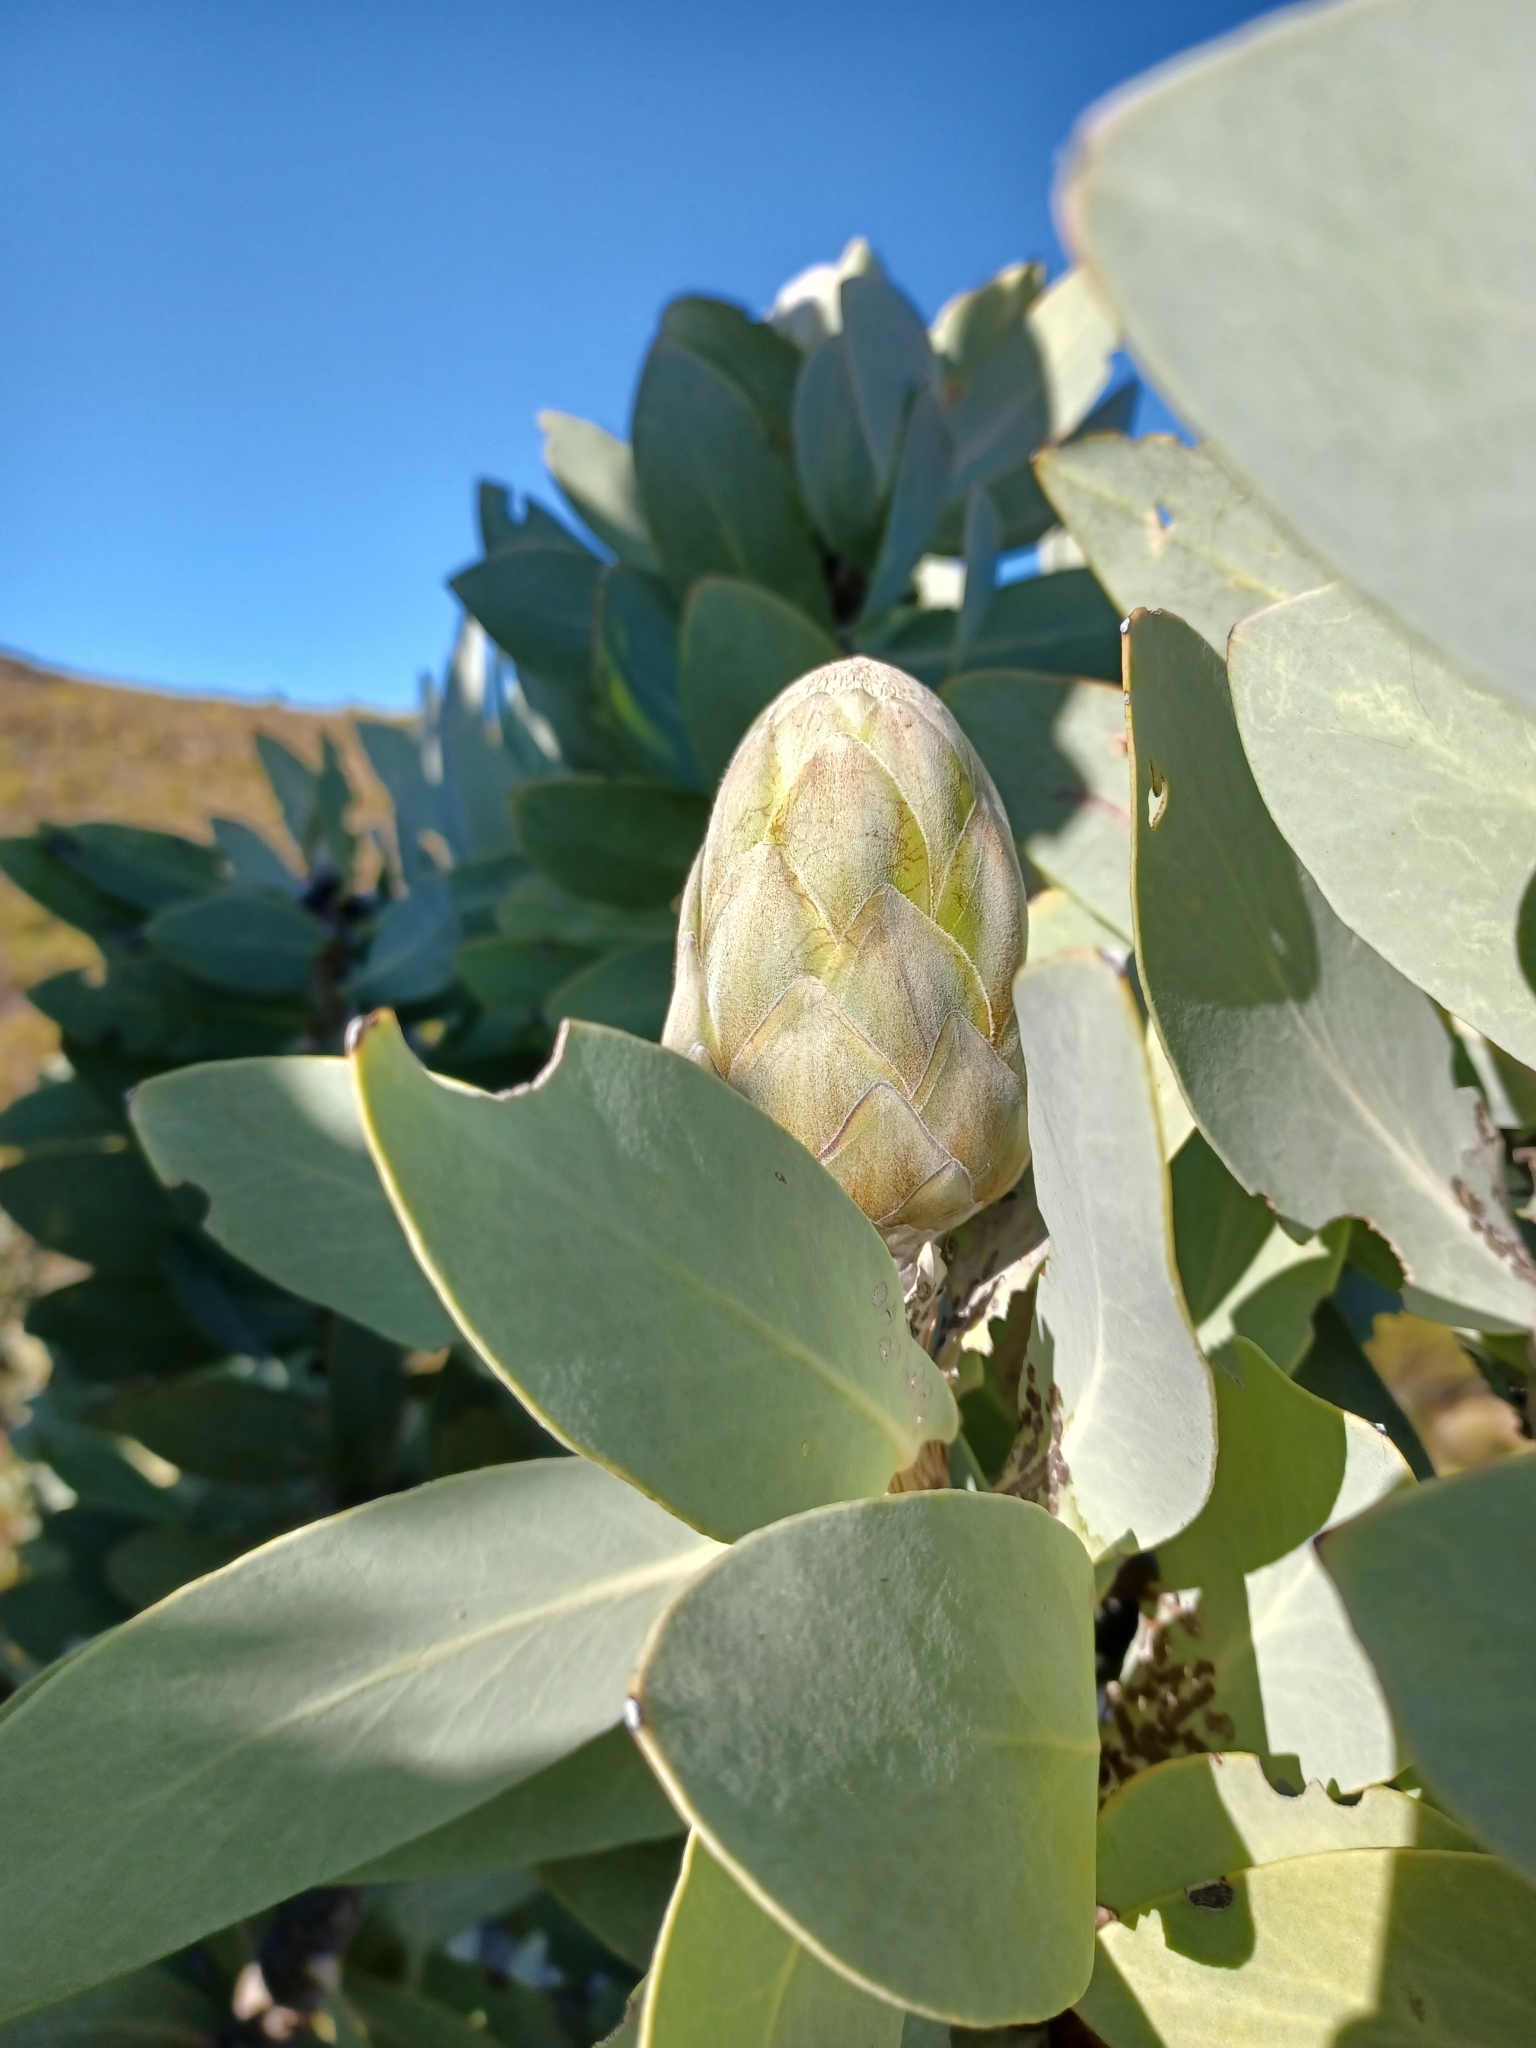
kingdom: Plantae
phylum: Tracheophyta
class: Magnoliopsida
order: Proteales
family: Proteaceae
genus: Protea
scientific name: Protea nitida
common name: Tree protea
